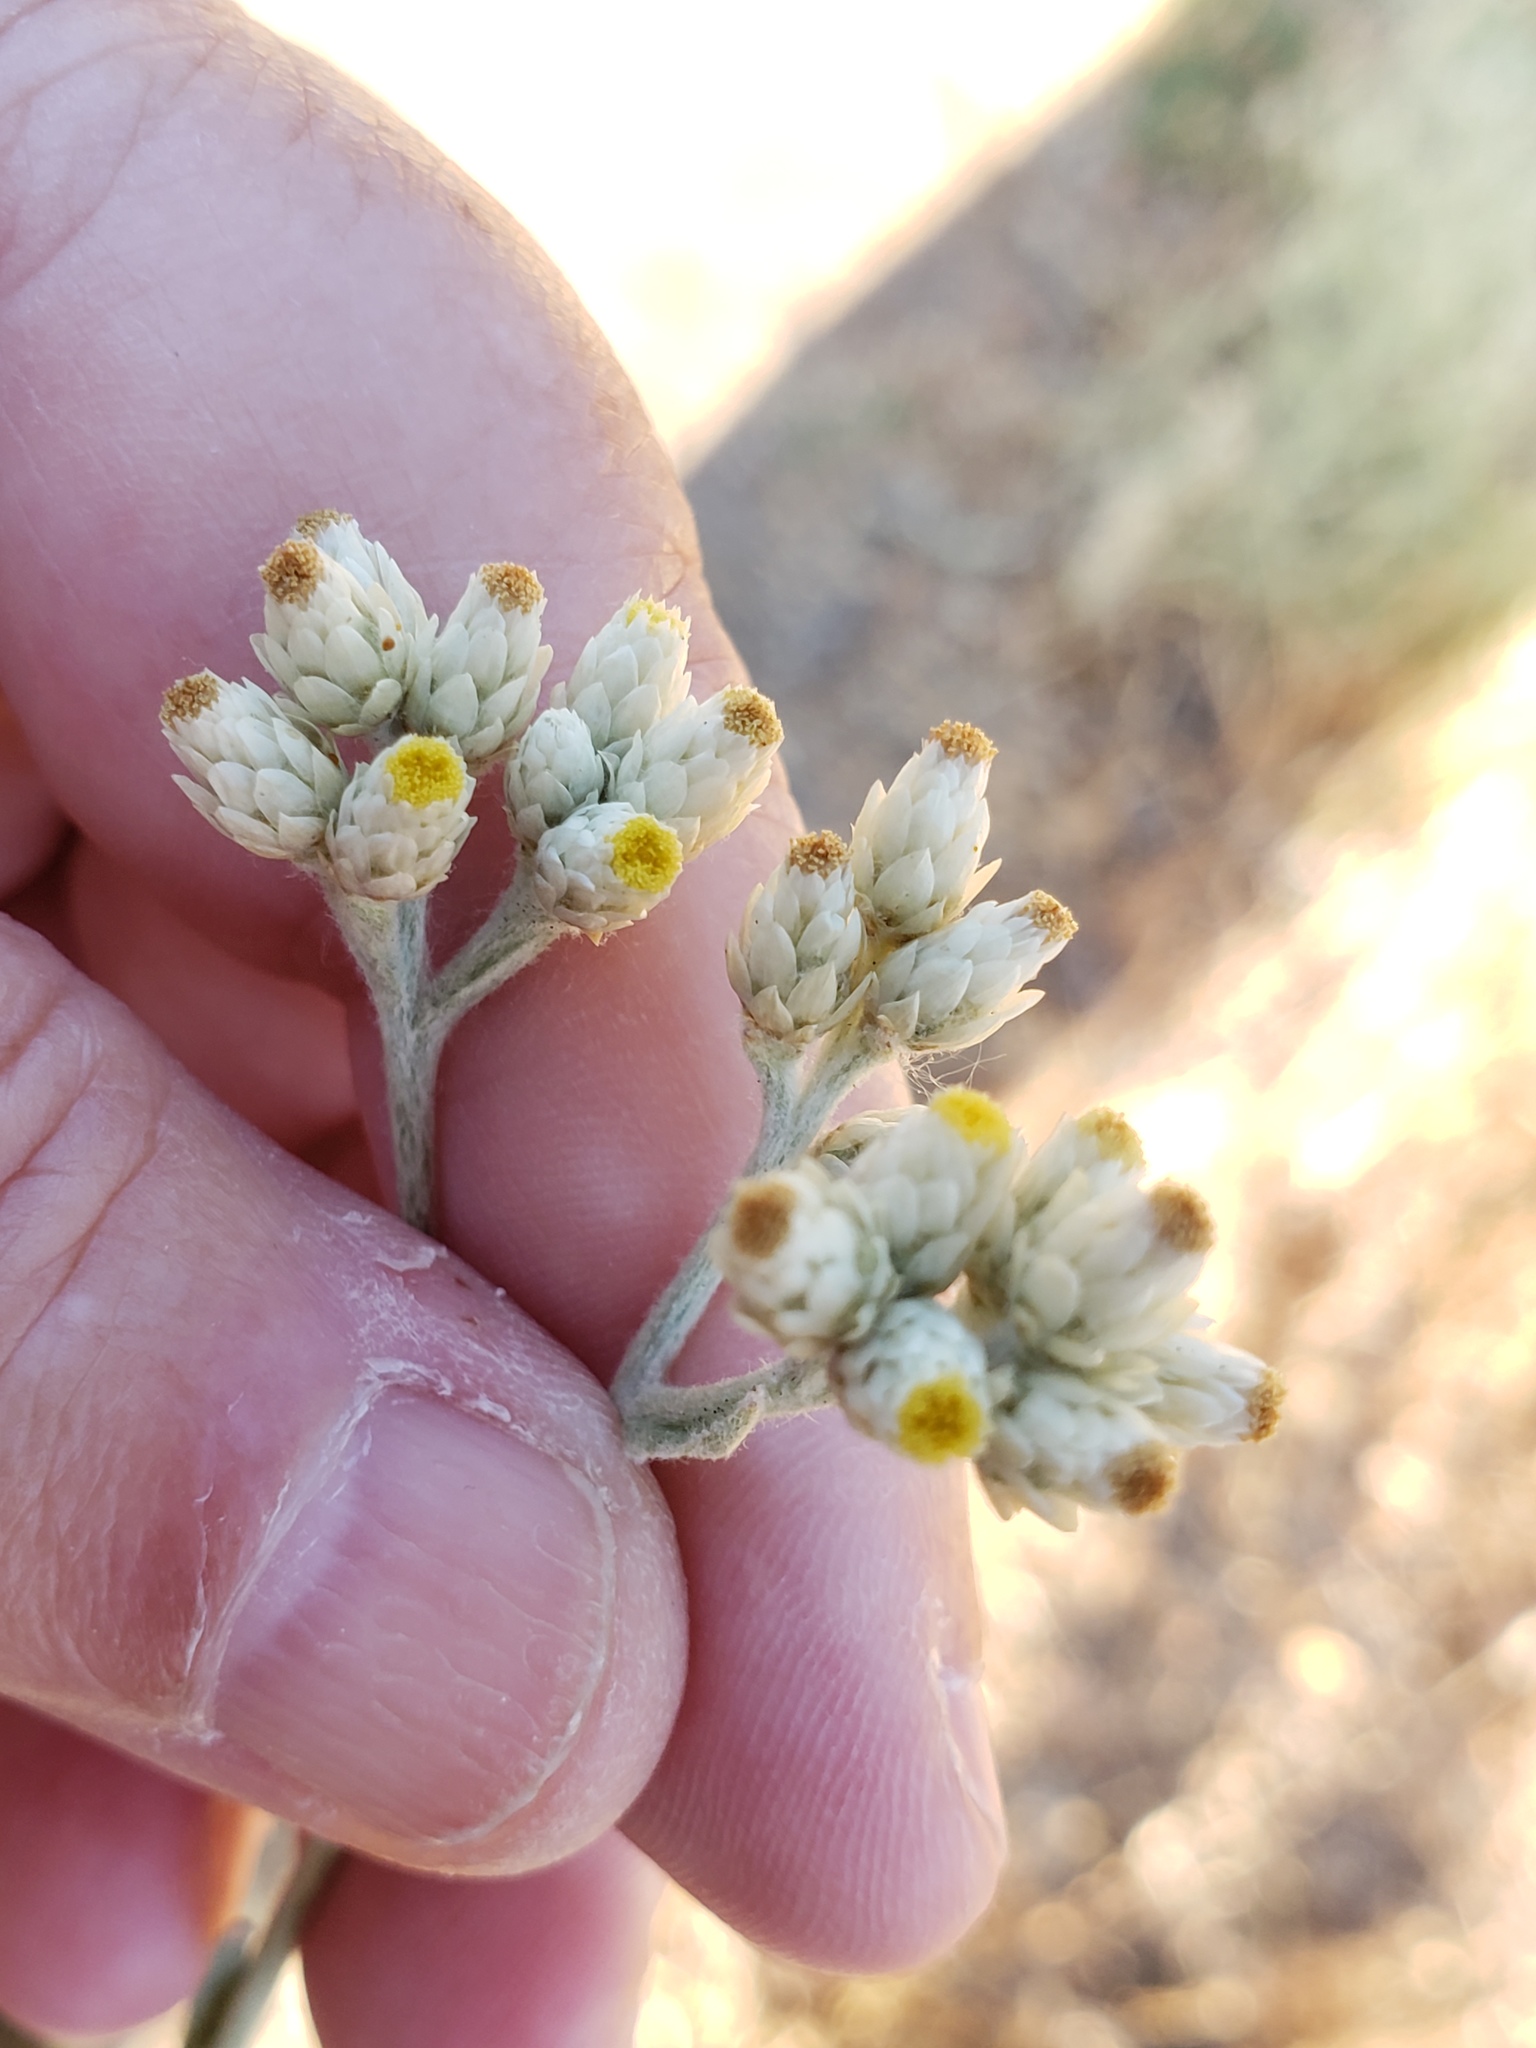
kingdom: Plantae
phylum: Tracheophyta
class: Magnoliopsida
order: Asterales
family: Asteraceae
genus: Pseudognaphalium
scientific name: Pseudognaphalium californicum
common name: California rabbit-tobacco
